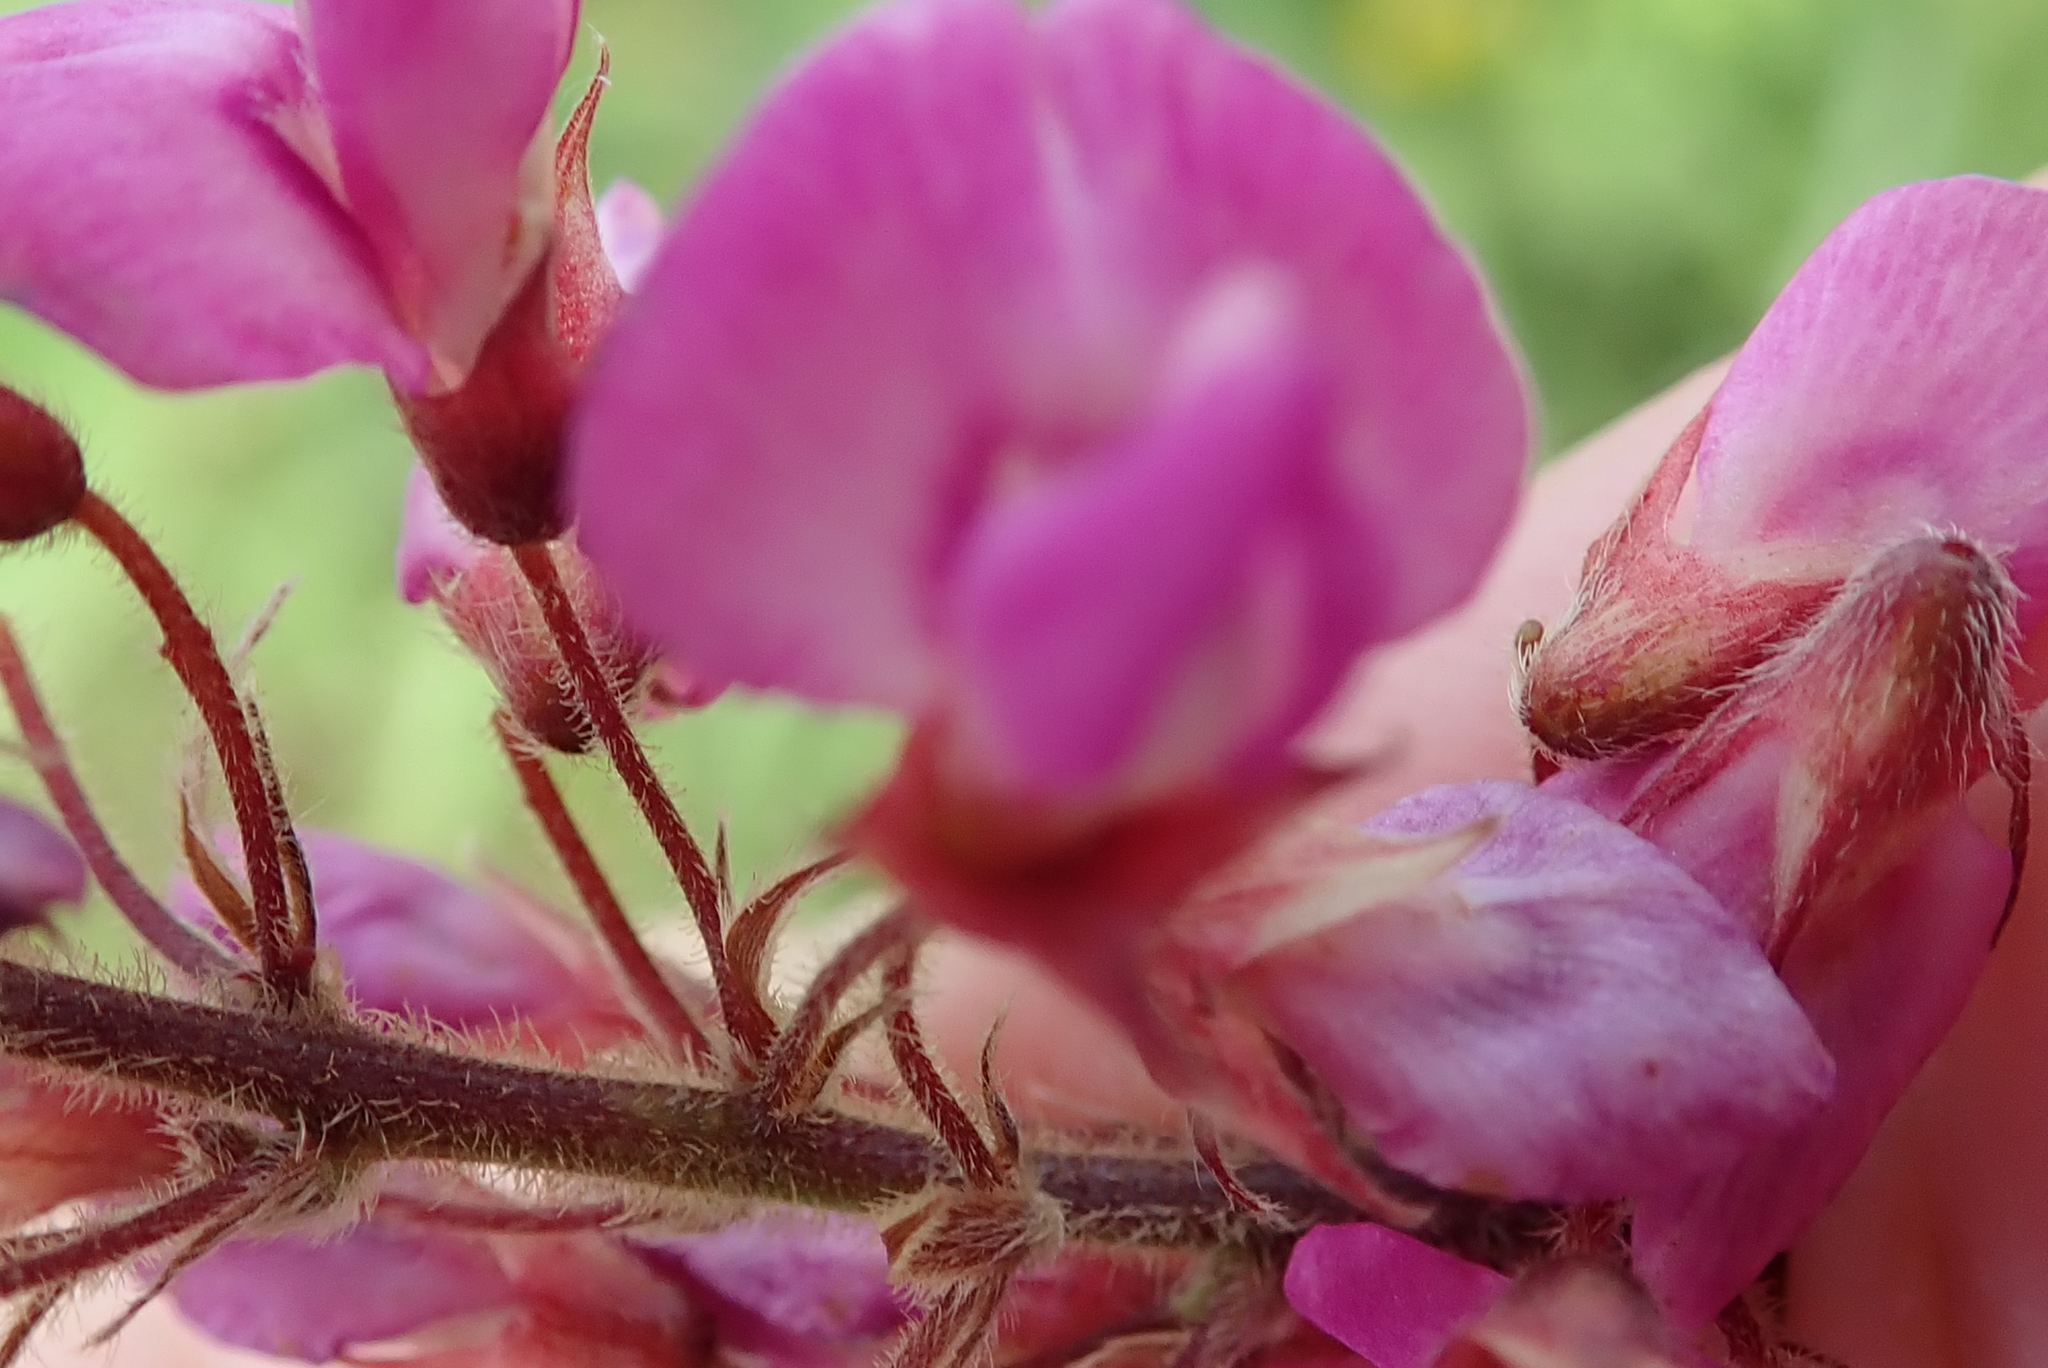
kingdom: Plantae
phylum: Tracheophyta
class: Magnoliopsida
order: Fabales
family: Fabaceae
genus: Pseudarthria
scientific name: Pseudarthria hookeri
